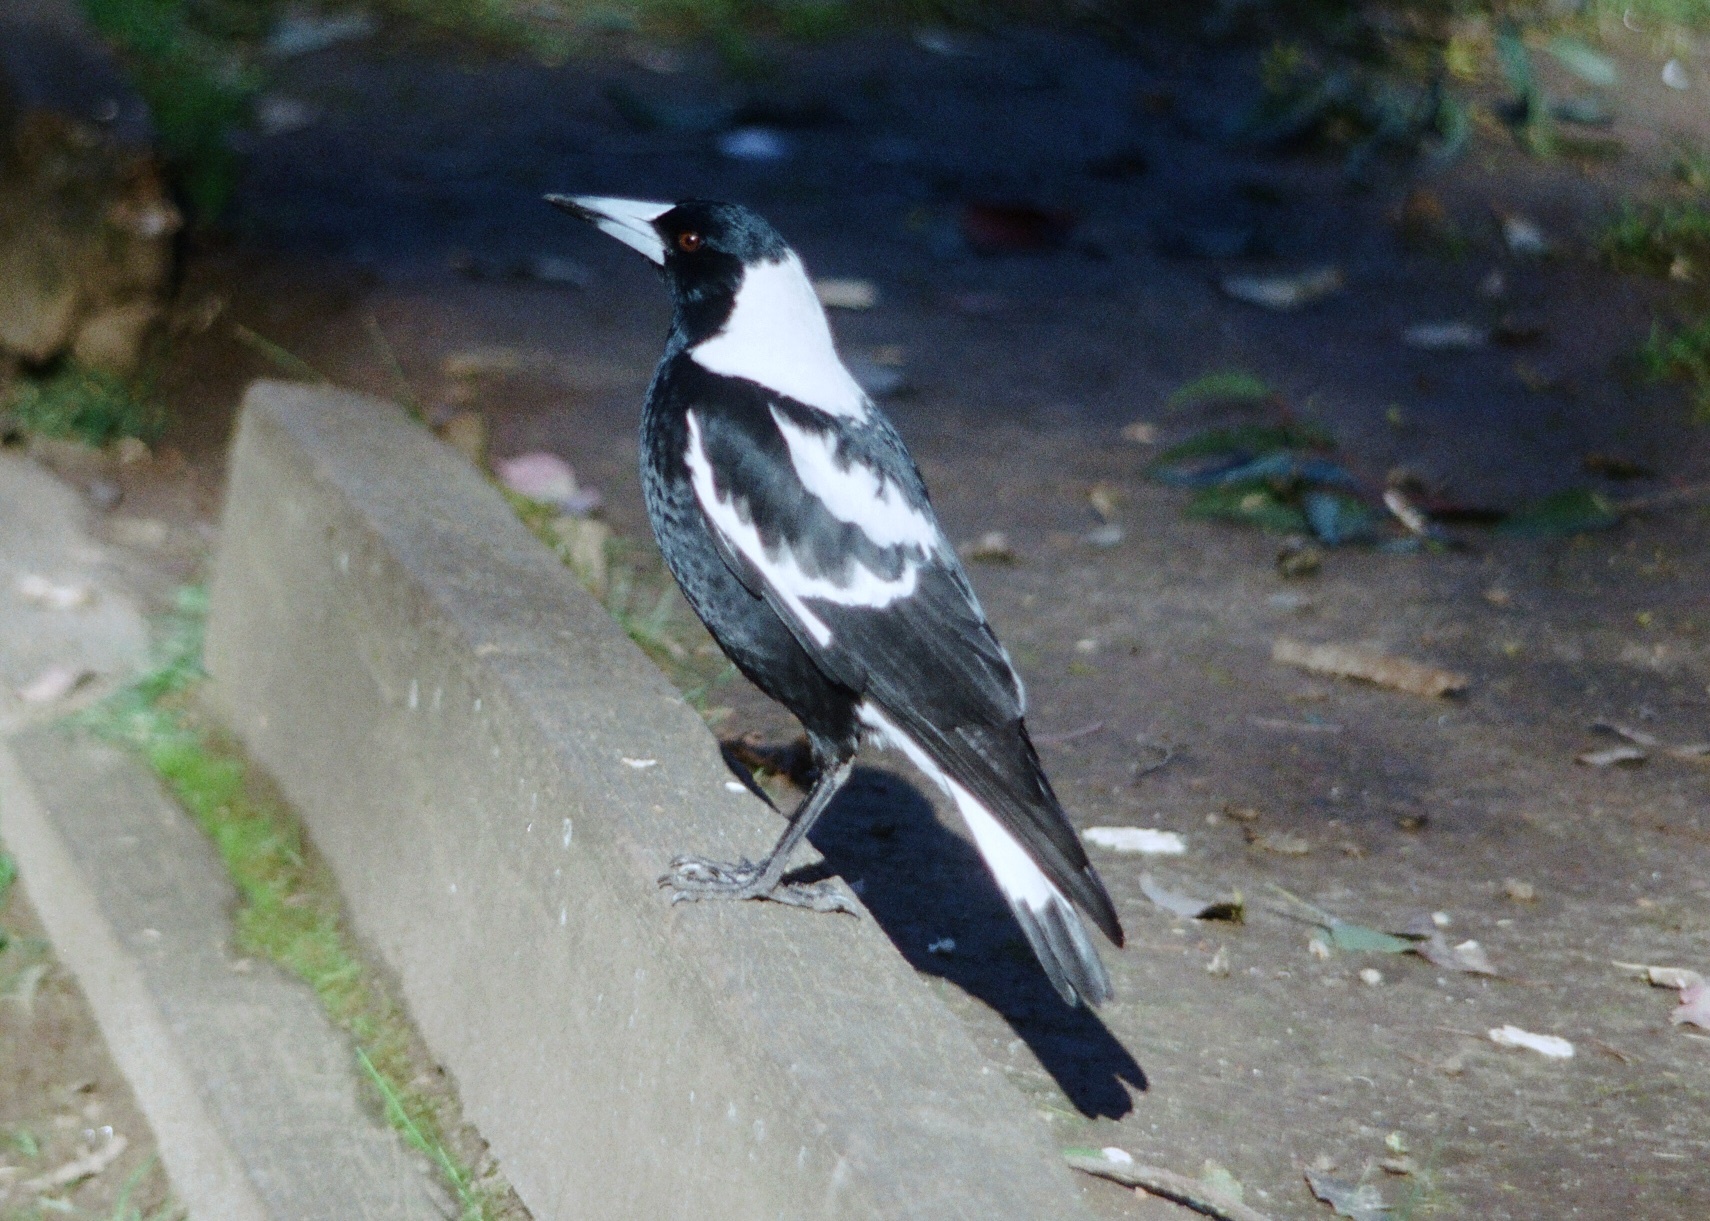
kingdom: Animalia
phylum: Chordata
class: Aves
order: Passeriformes
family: Cracticidae
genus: Gymnorhina
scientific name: Gymnorhina tibicen
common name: Australian magpie
